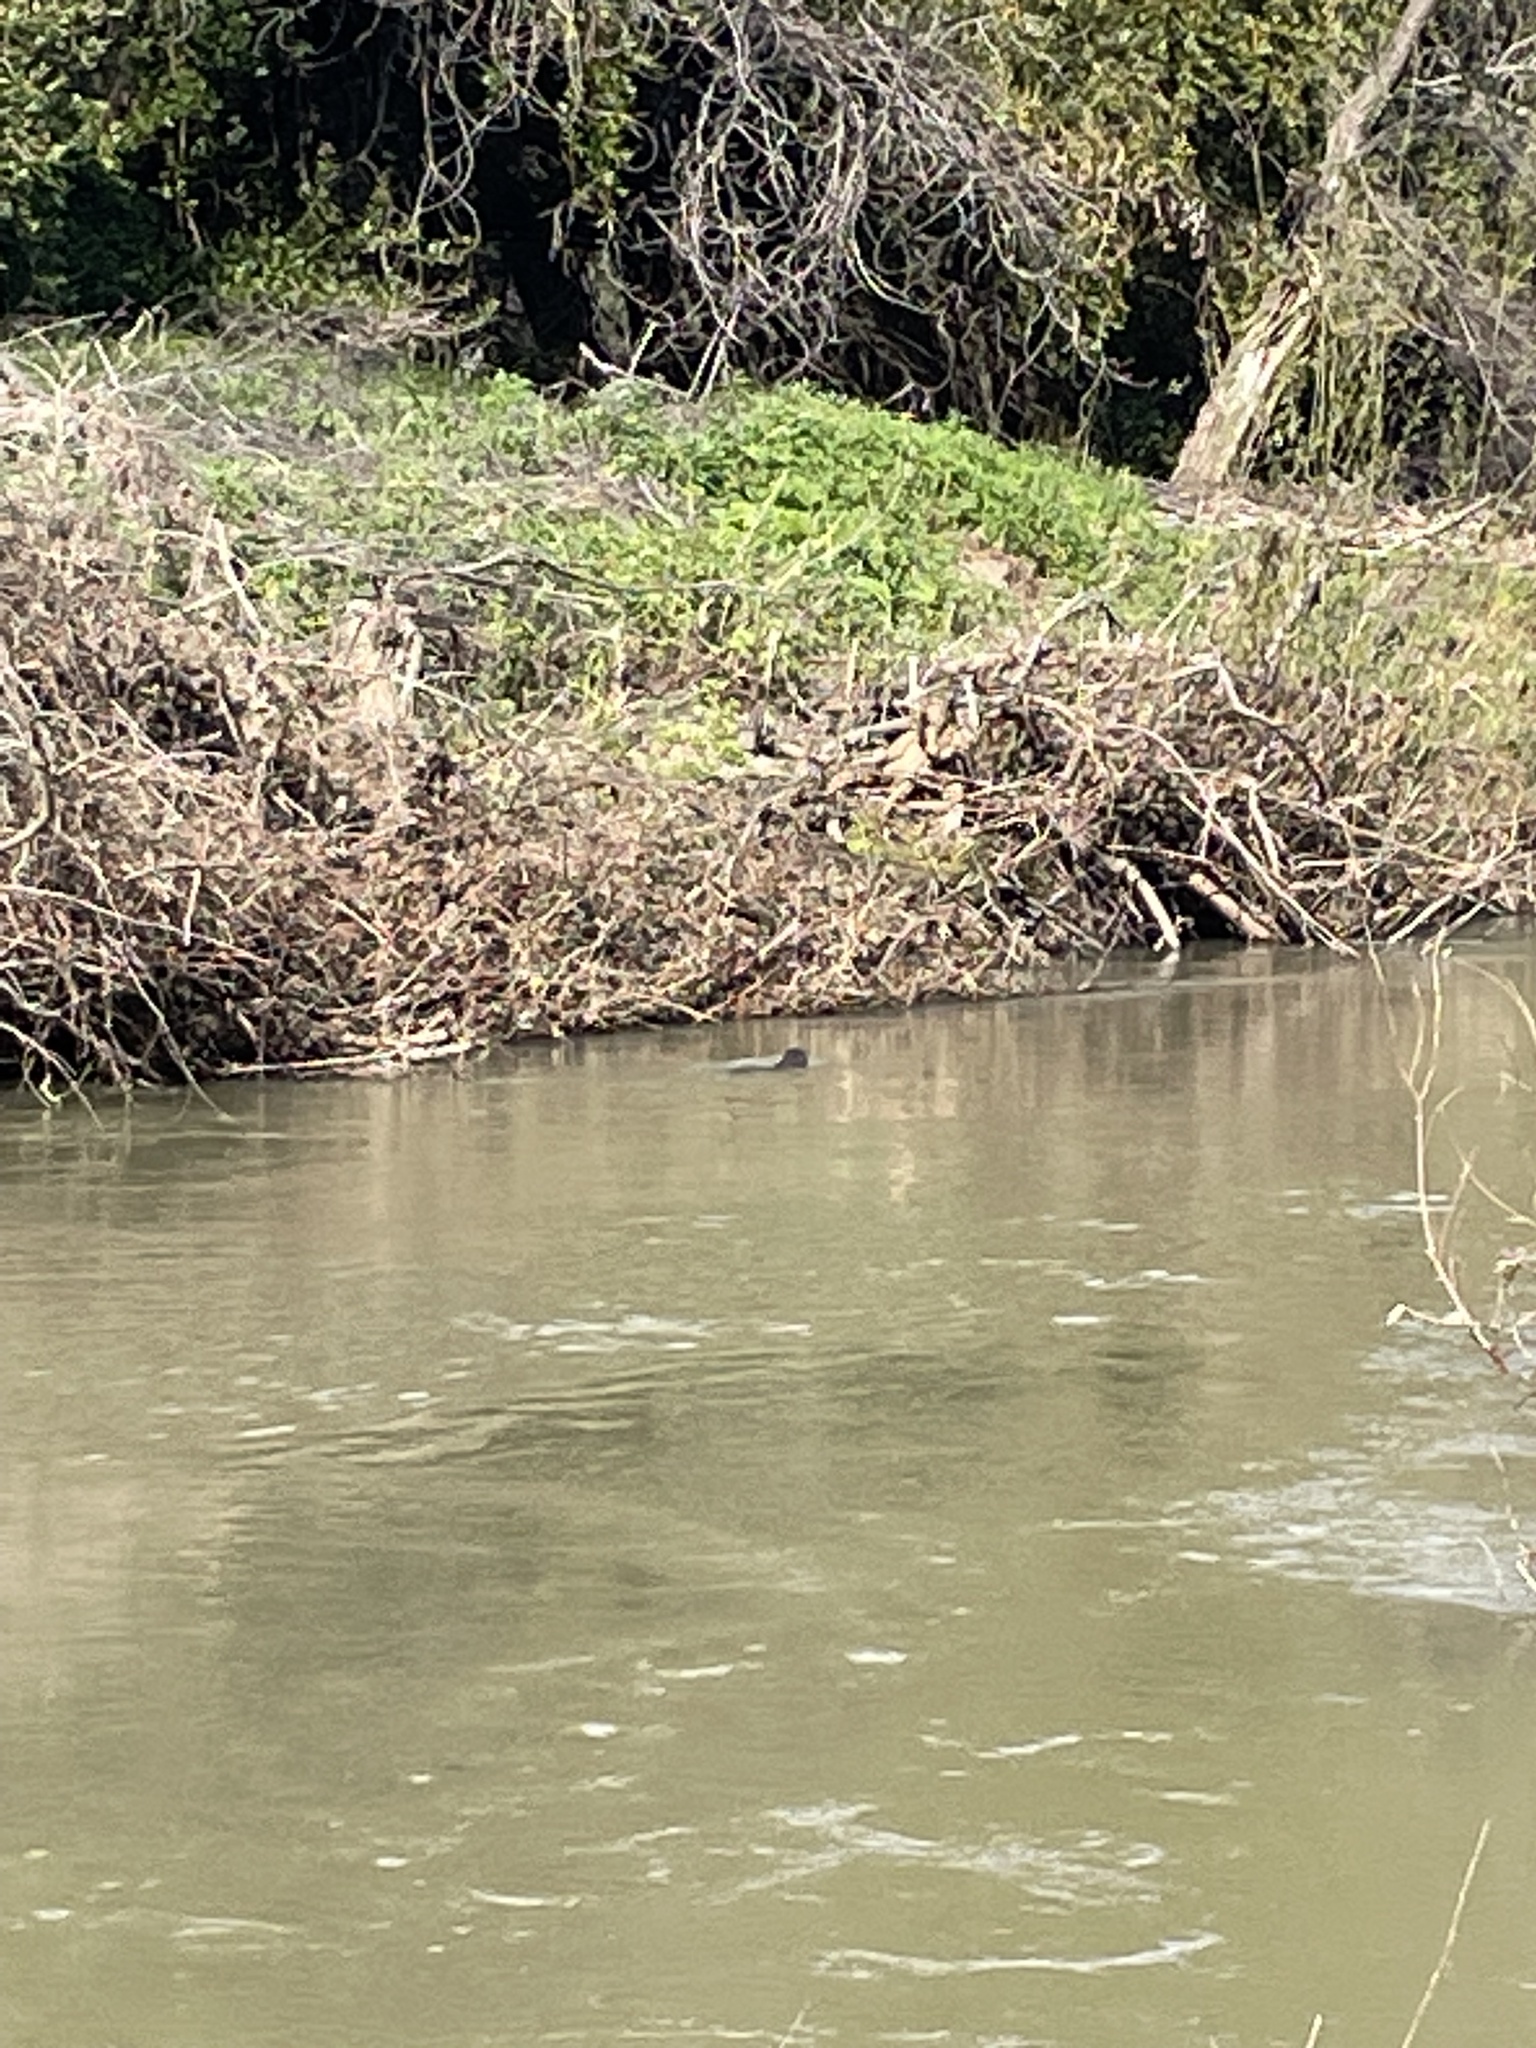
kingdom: Animalia
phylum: Chordata
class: Mammalia
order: Carnivora
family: Mustelidae
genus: Lontra
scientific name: Lontra canadensis
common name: North american river otter
